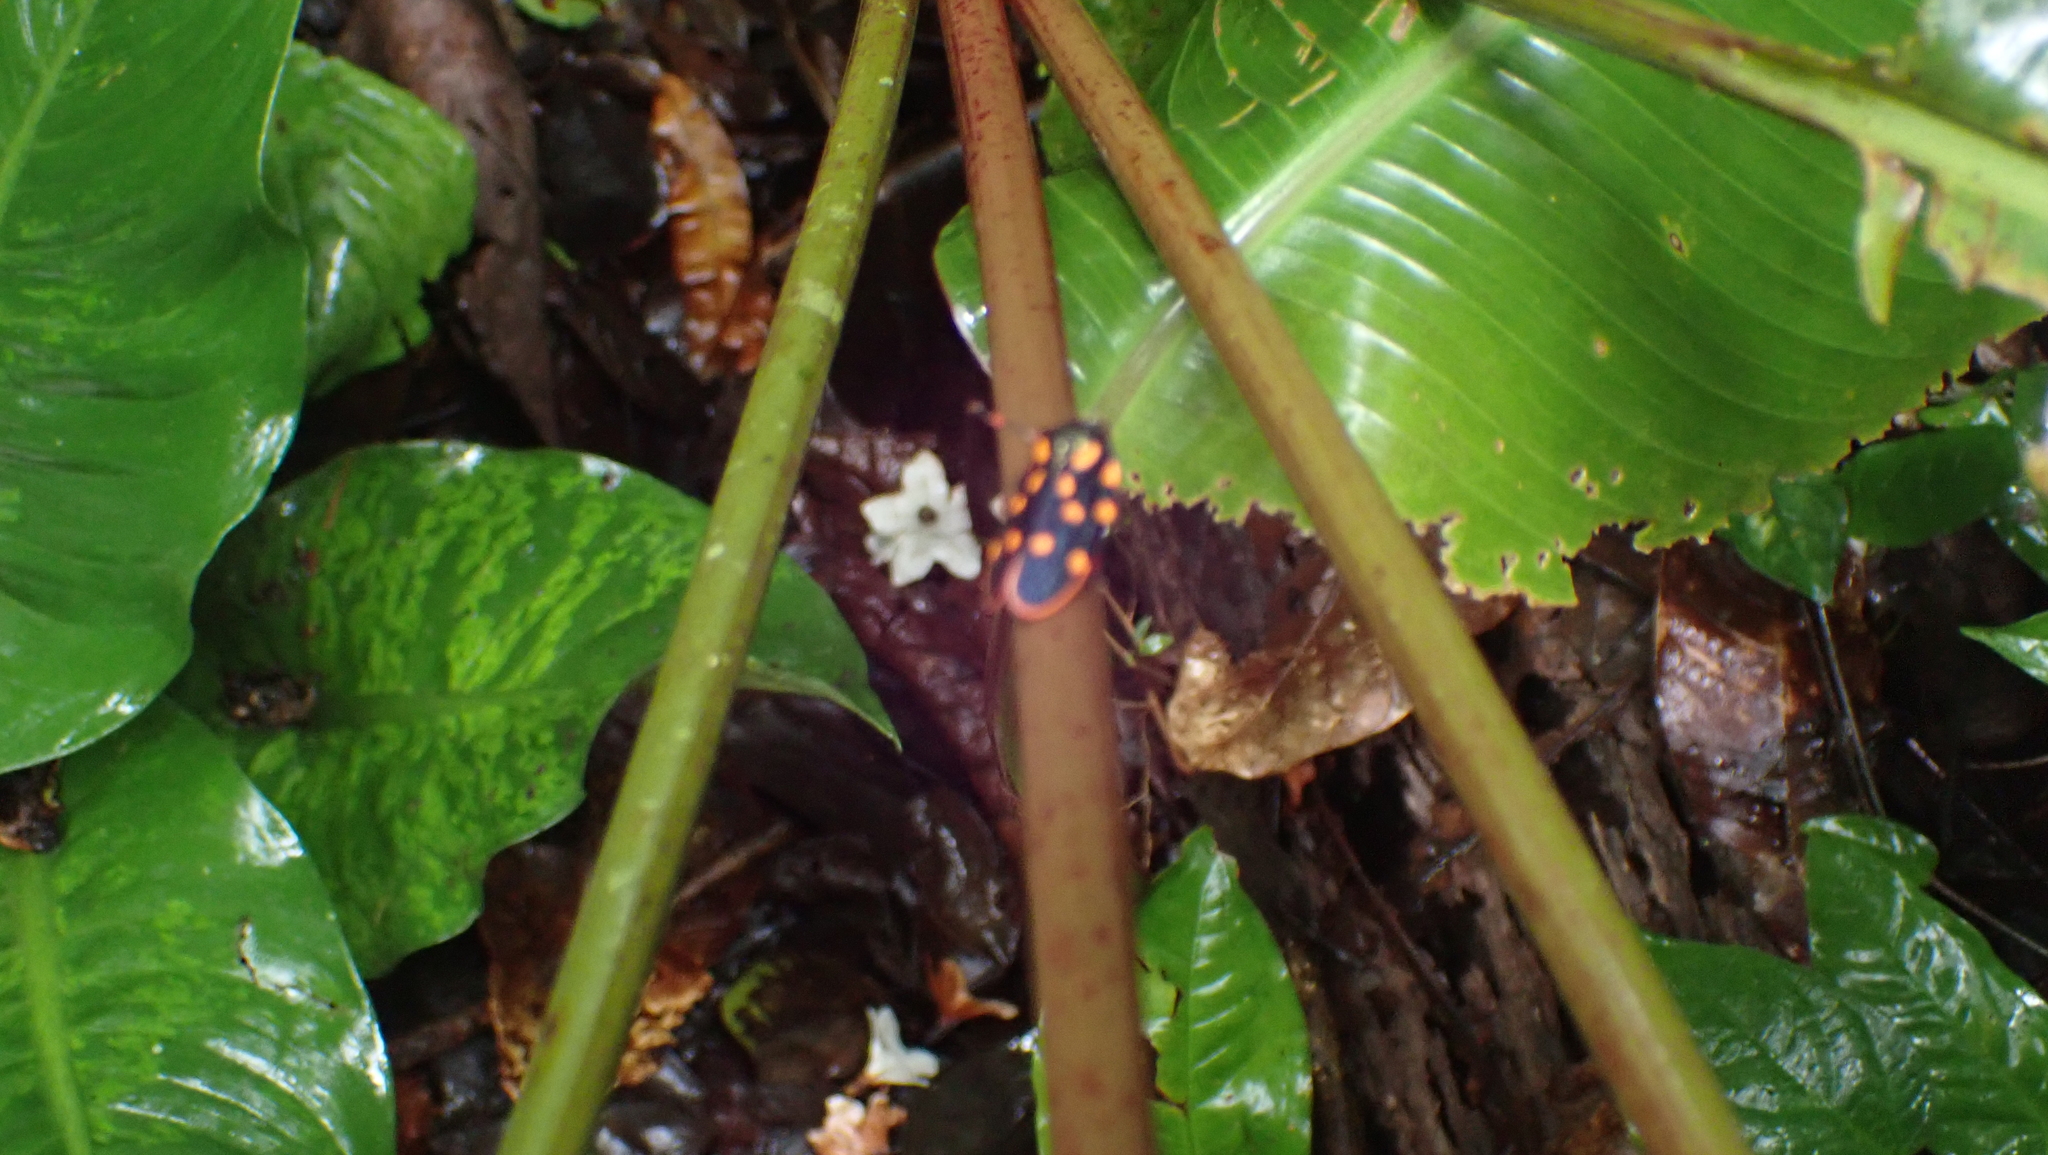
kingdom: Animalia
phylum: Arthropoda
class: Insecta
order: Hemiptera
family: Cercopidae
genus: Mahanarva
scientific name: Mahanarva costaricensis
